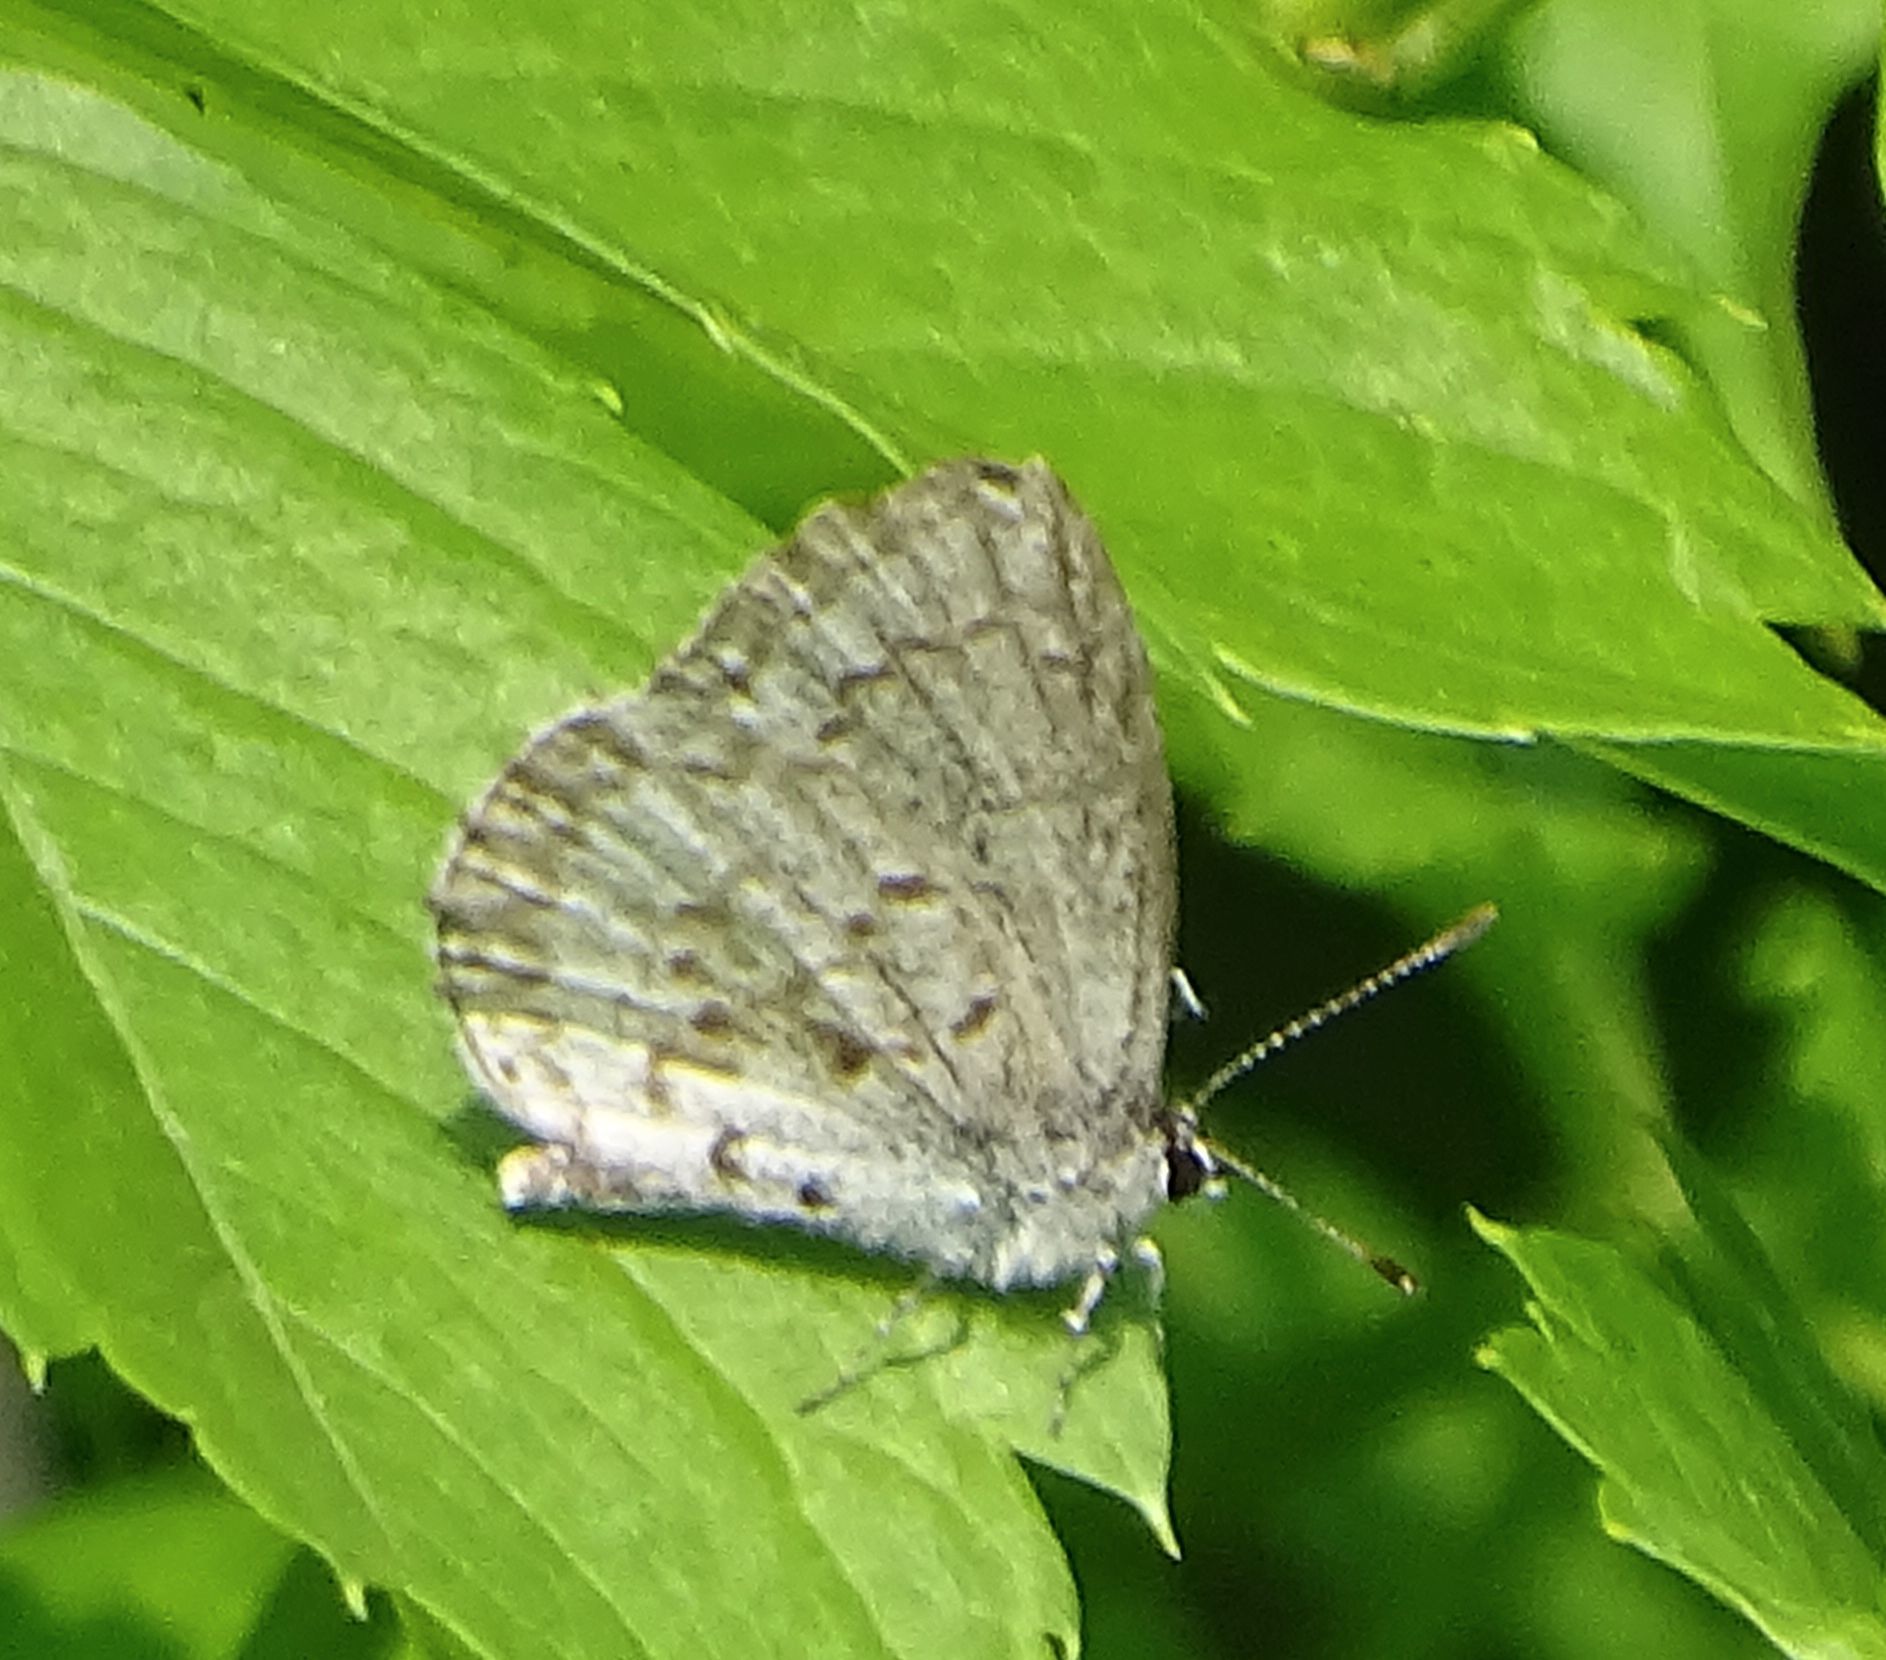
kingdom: Animalia
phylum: Arthropoda
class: Insecta
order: Lepidoptera
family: Lycaenidae
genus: Celastrina
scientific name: Celastrina lucia
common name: Lucia azure
